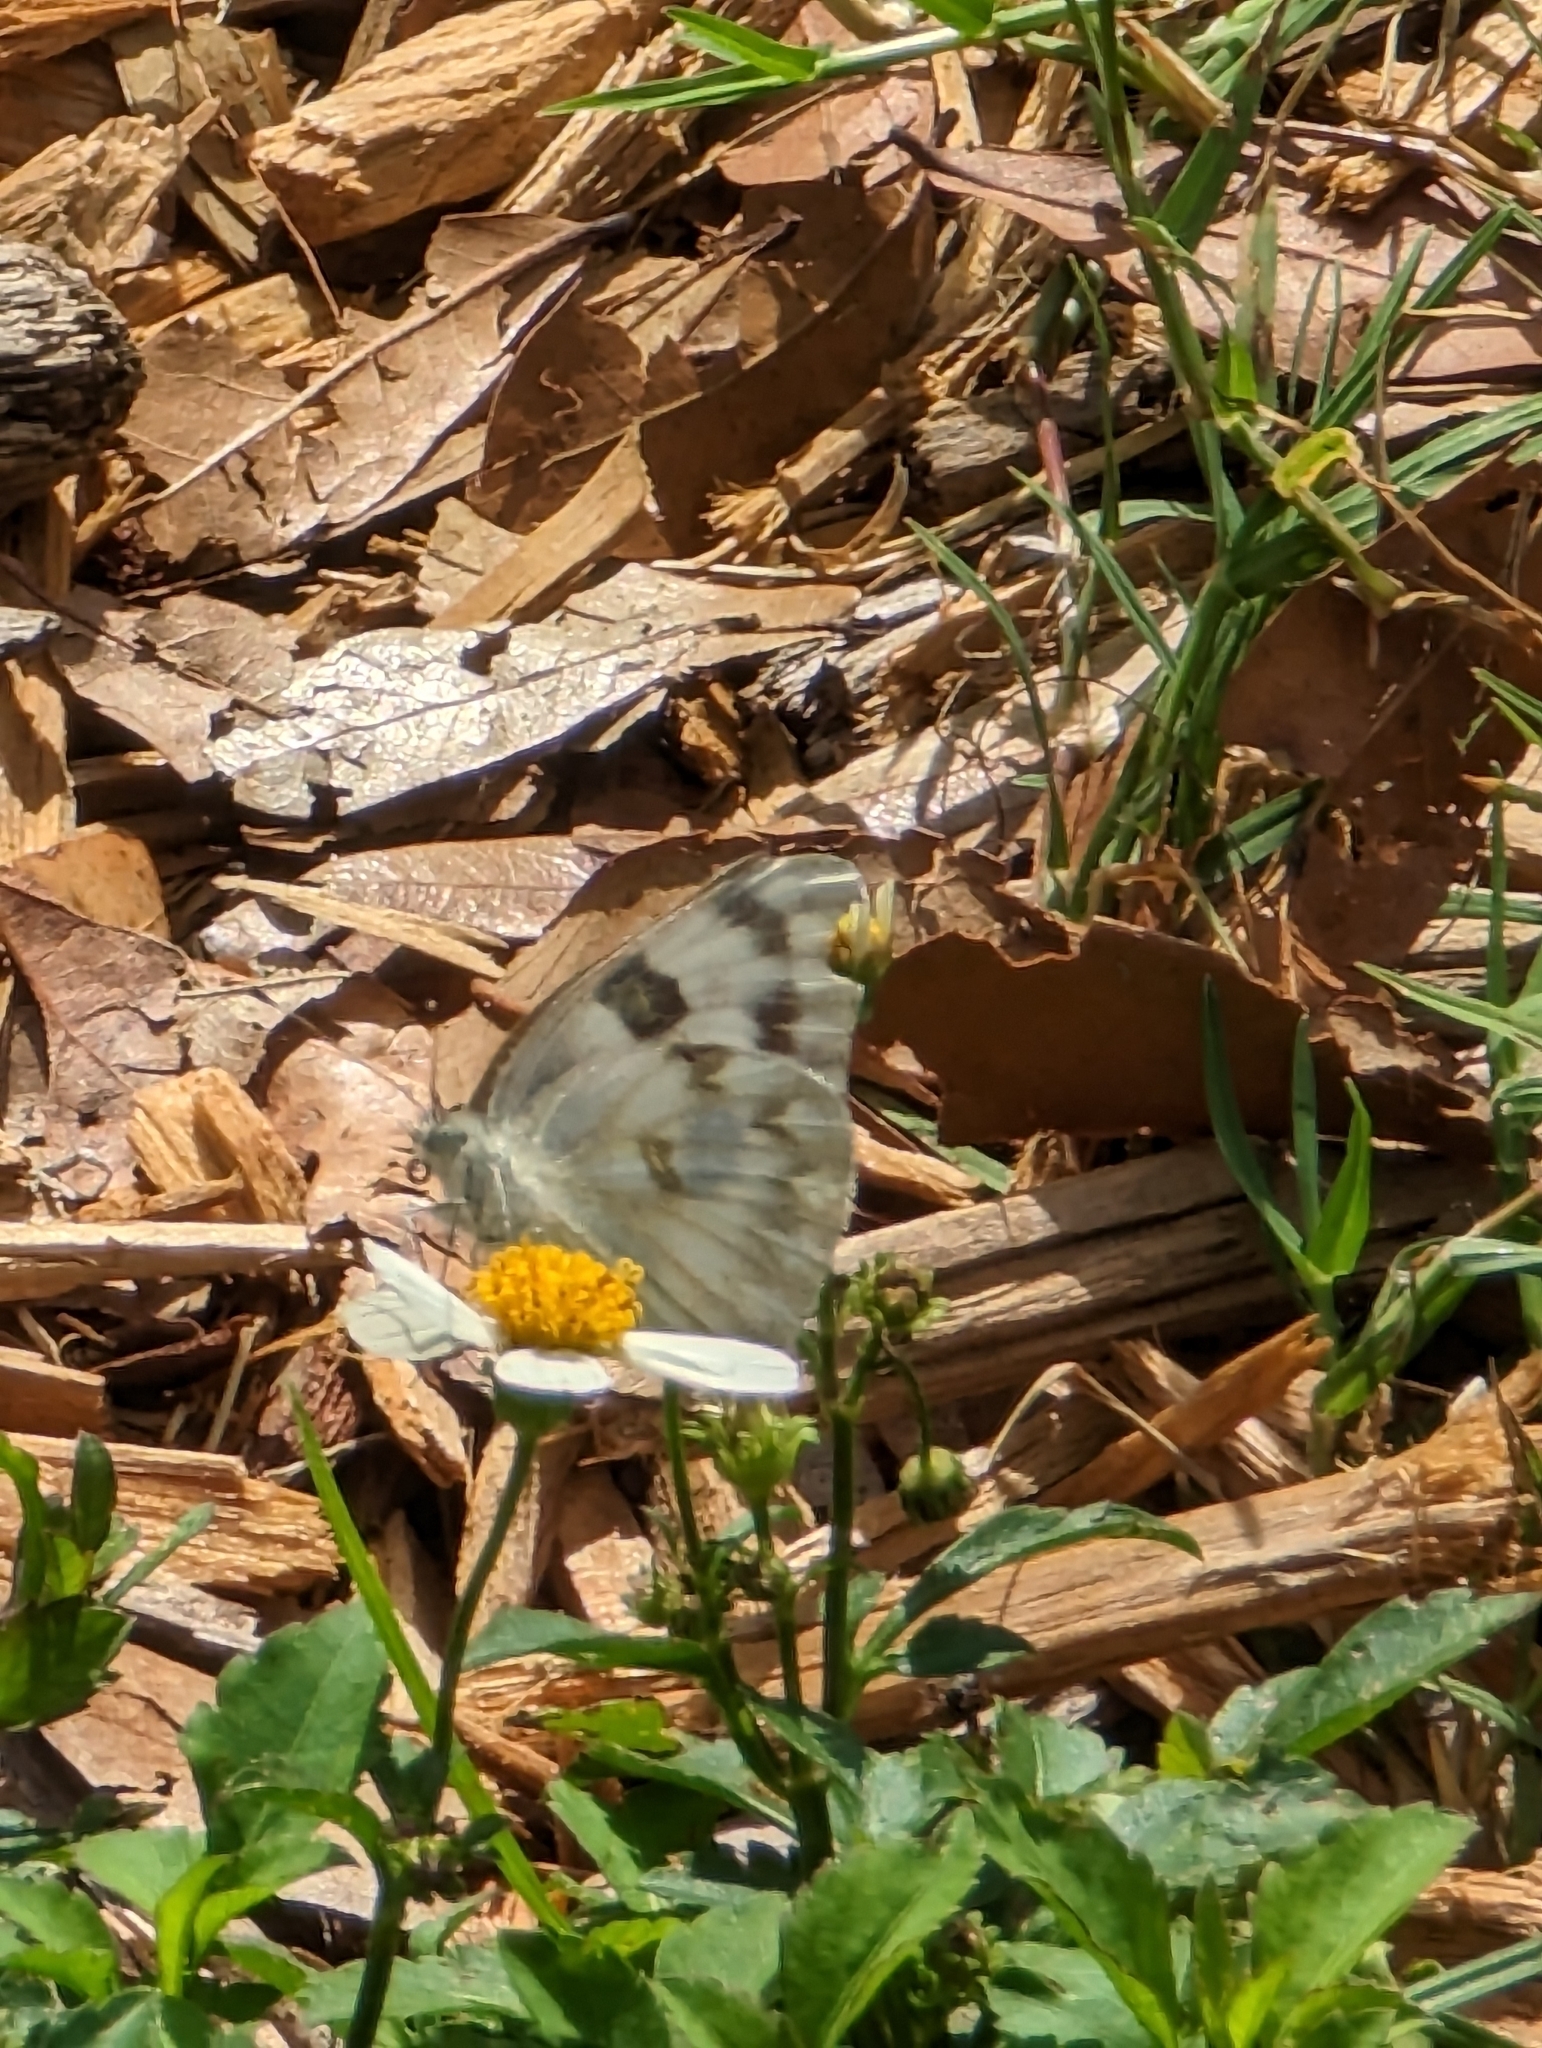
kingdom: Animalia
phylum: Arthropoda
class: Insecta
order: Lepidoptera
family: Pieridae
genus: Pontia
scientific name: Pontia protodice
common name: Checkered white
